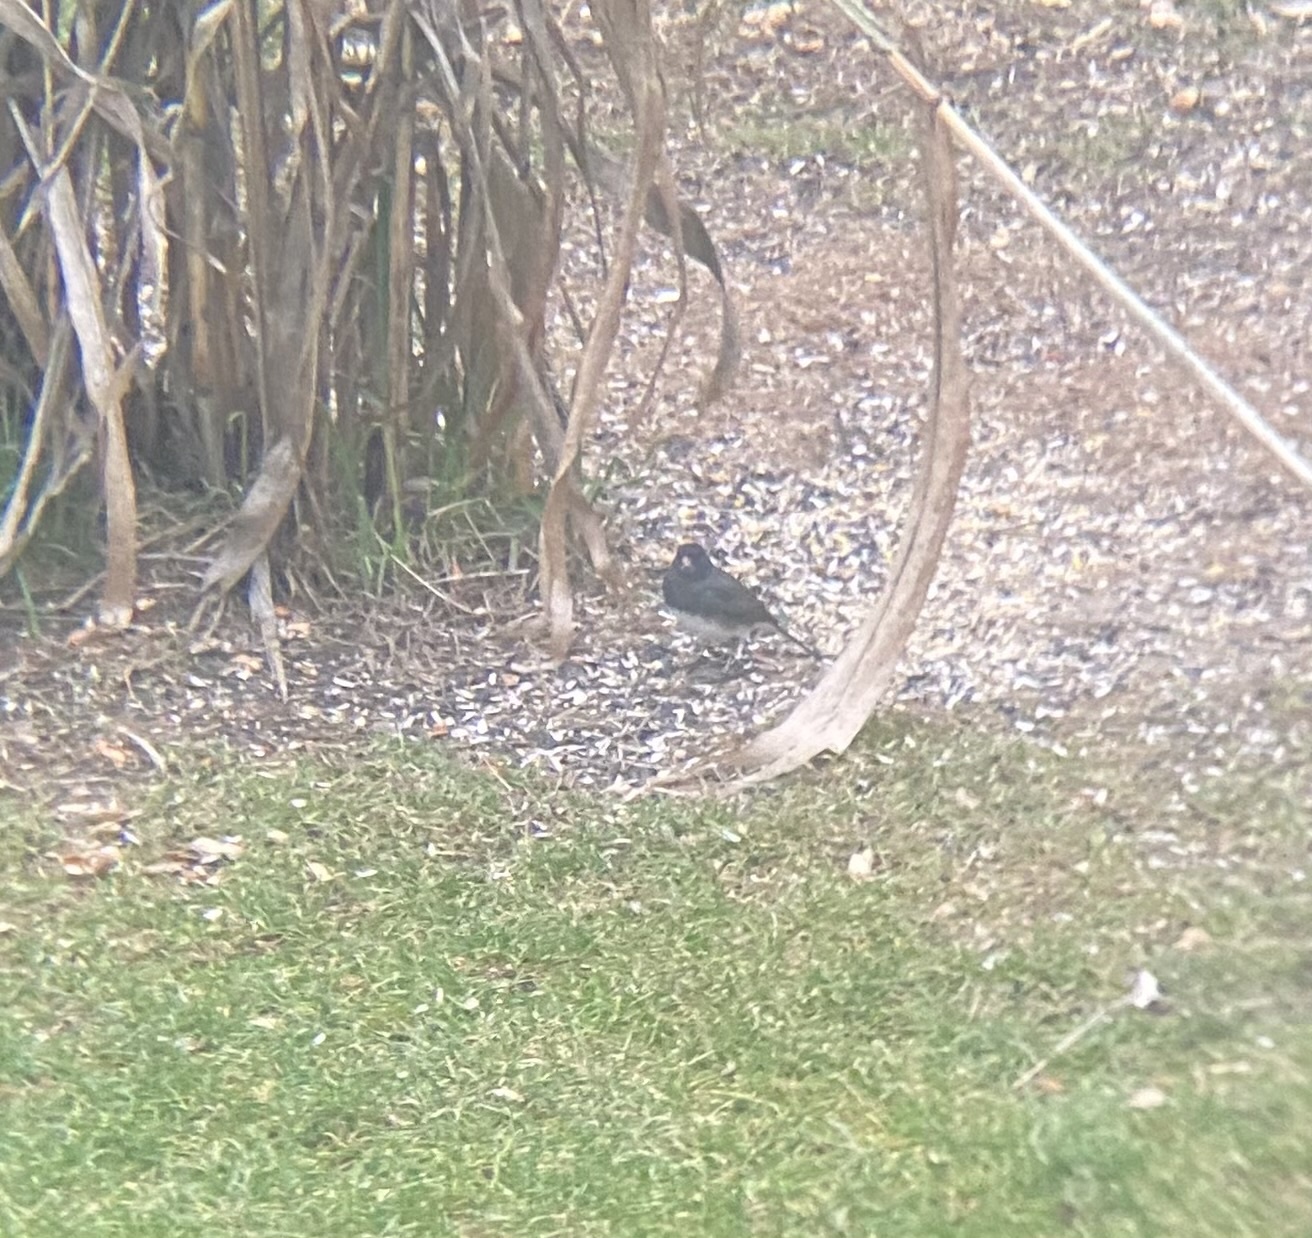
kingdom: Animalia
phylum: Chordata
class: Aves
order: Passeriformes
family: Passerellidae
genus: Junco
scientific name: Junco hyemalis
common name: Dark-eyed junco
